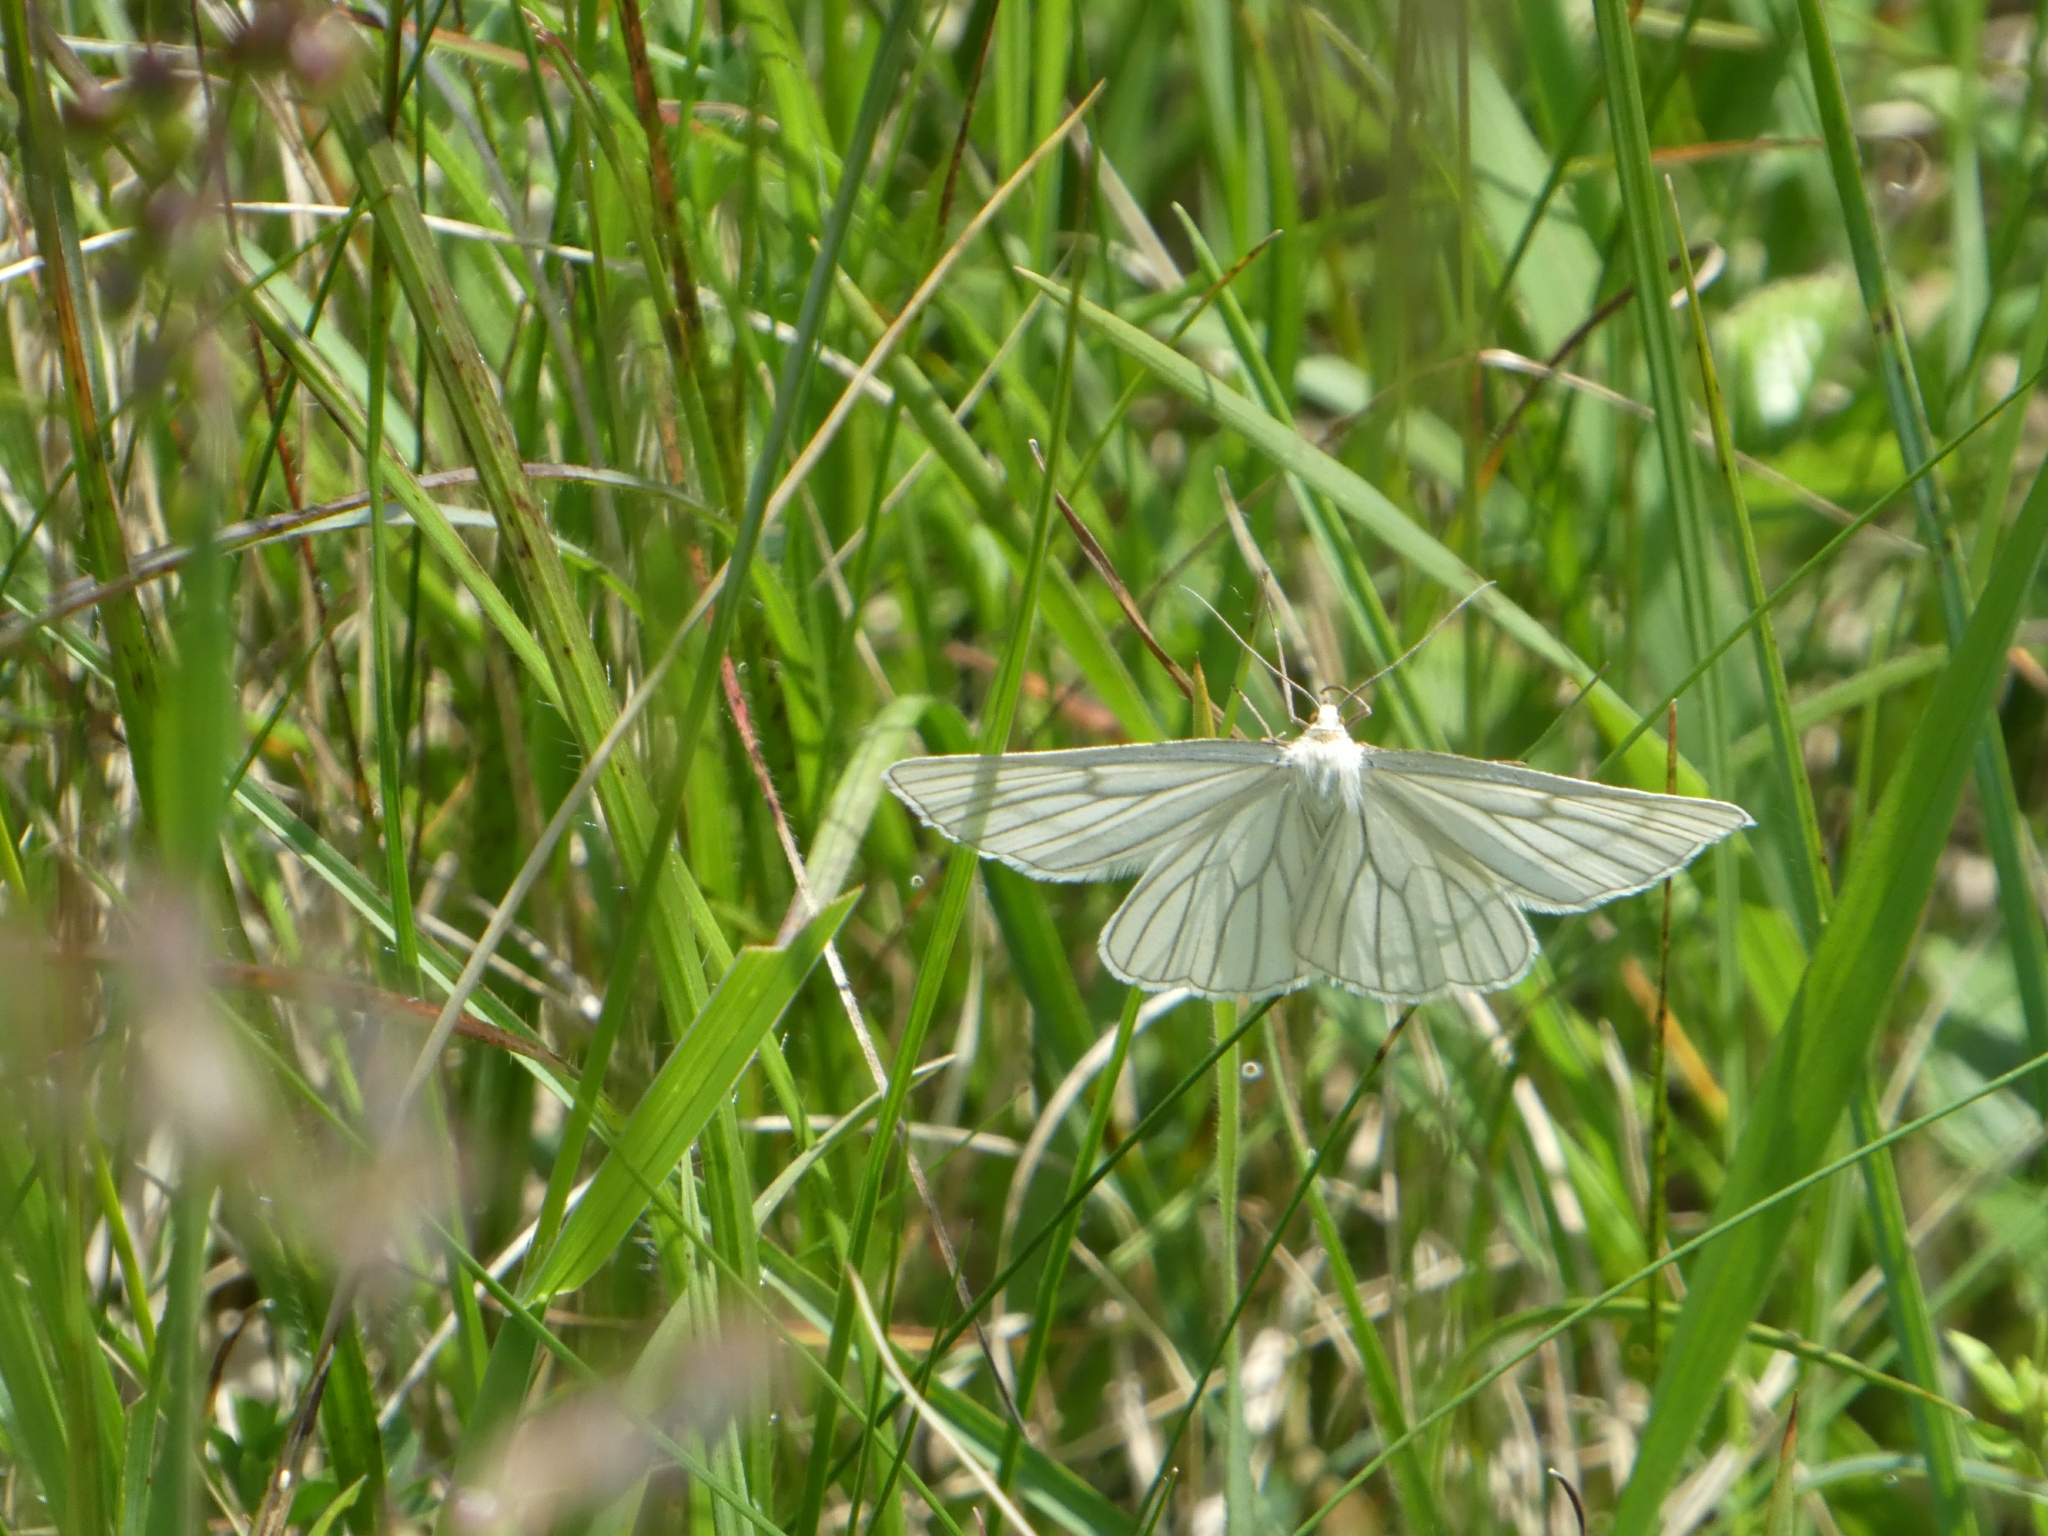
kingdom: Animalia
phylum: Arthropoda
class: Insecta
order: Lepidoptera
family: Geometridae
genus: Siona
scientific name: Siona lineata
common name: Black-veined moth
